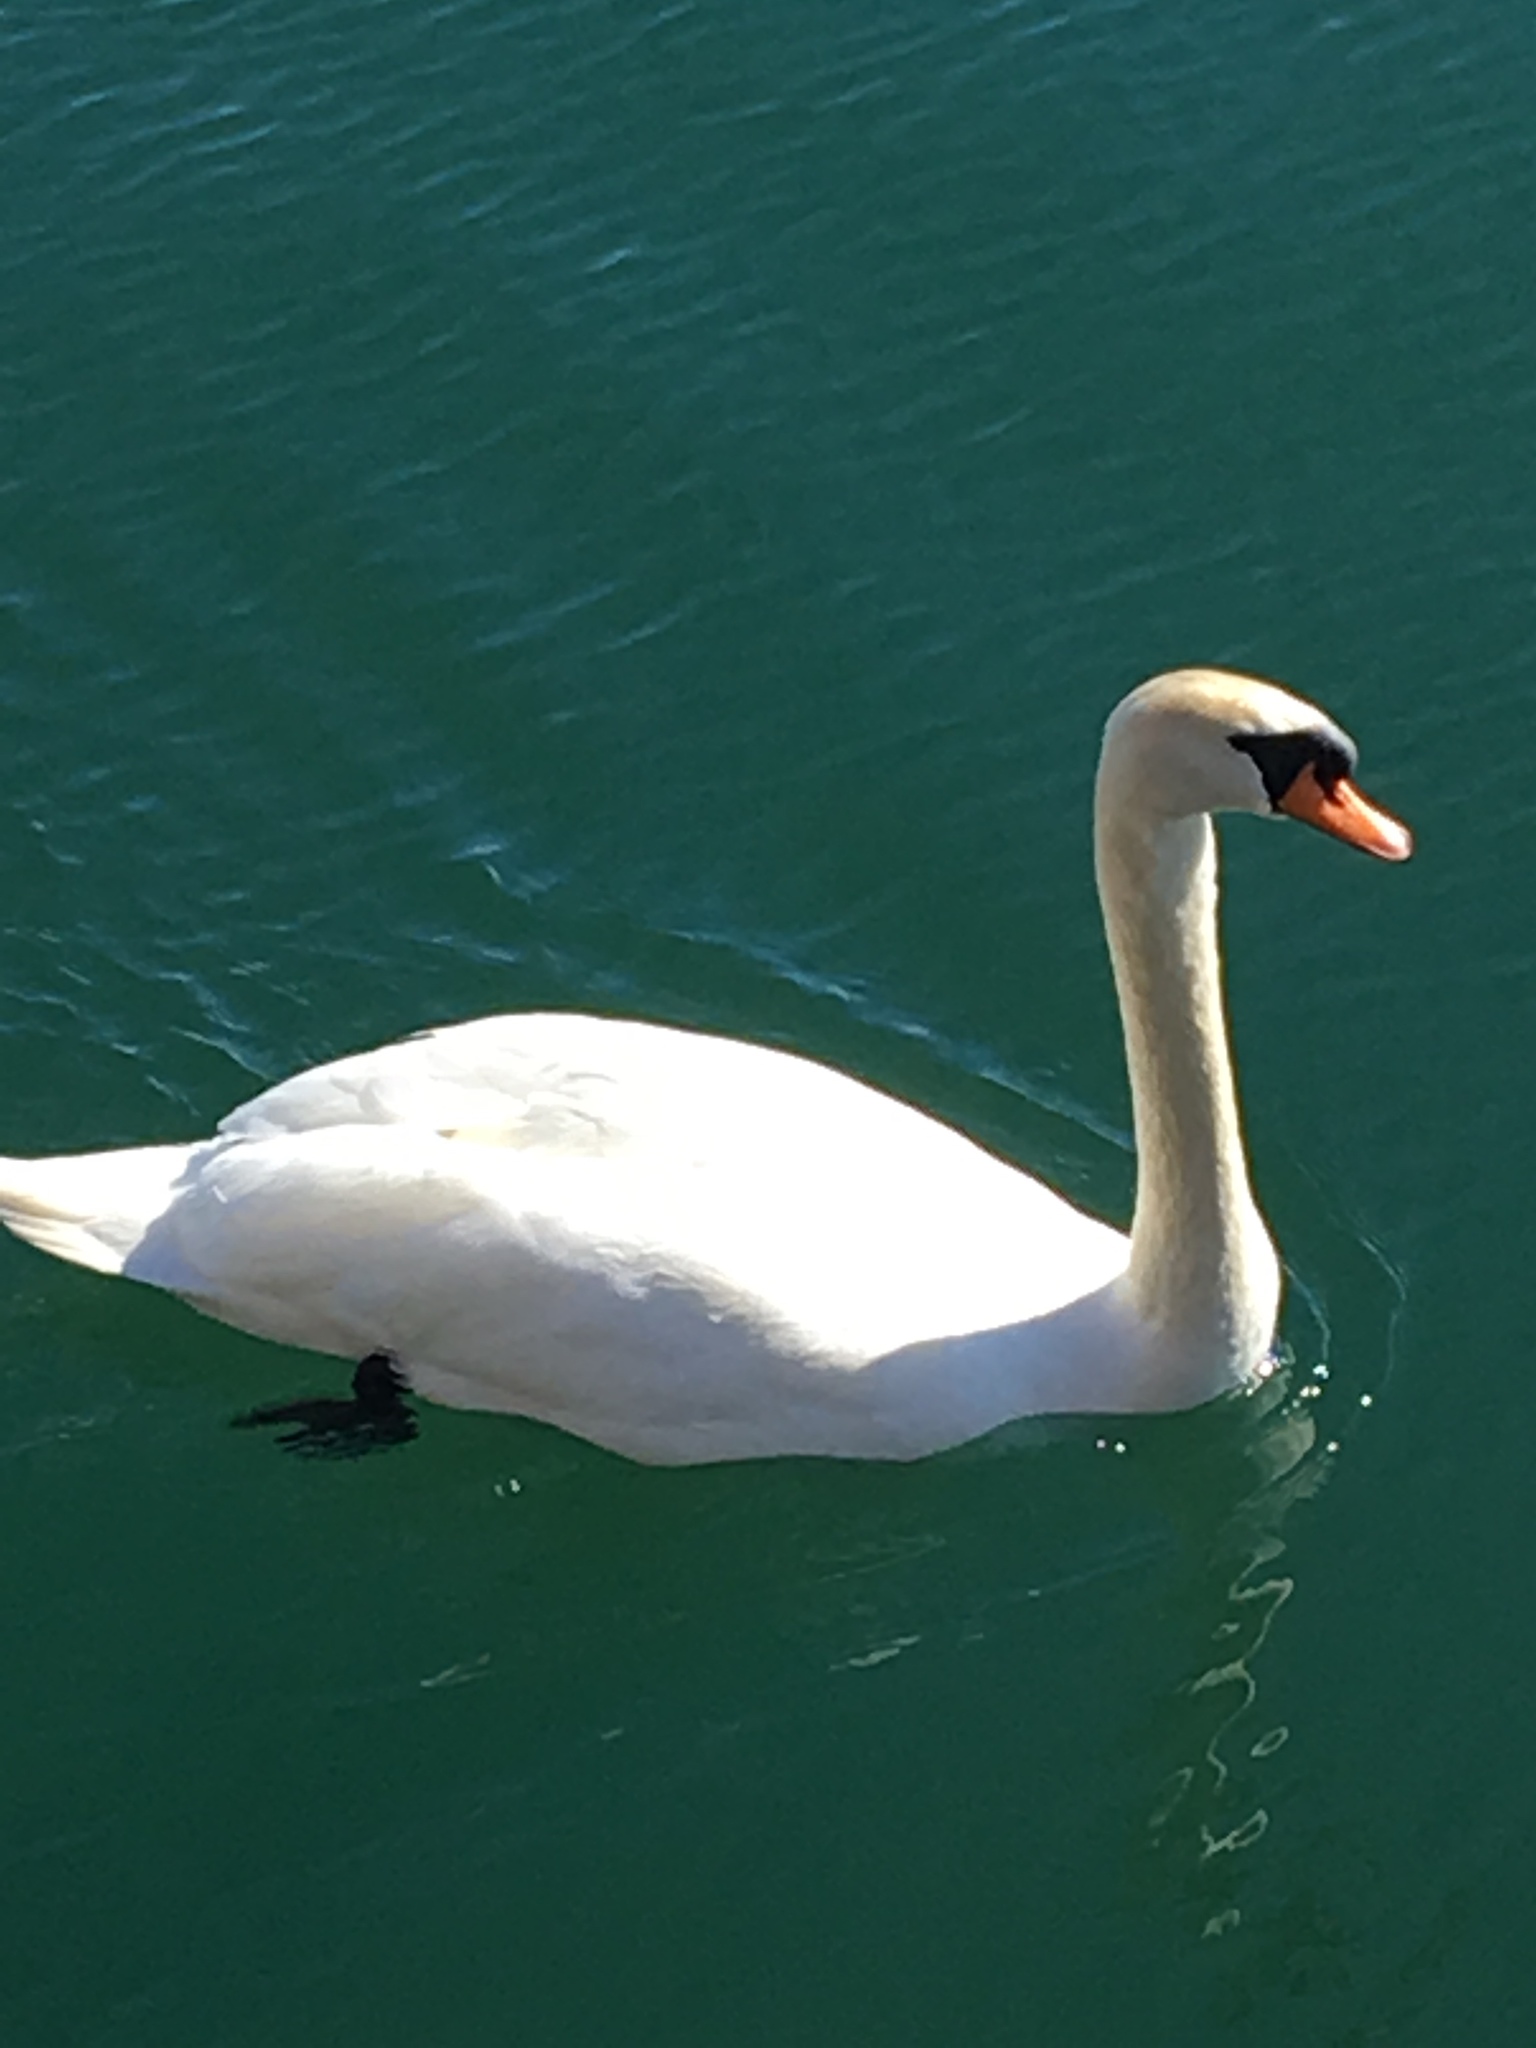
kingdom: Animalia
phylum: Chordata
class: Aves
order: Anseriformes
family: Anatidae
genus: Cygnus
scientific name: Cygnus olor
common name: Mute swan
